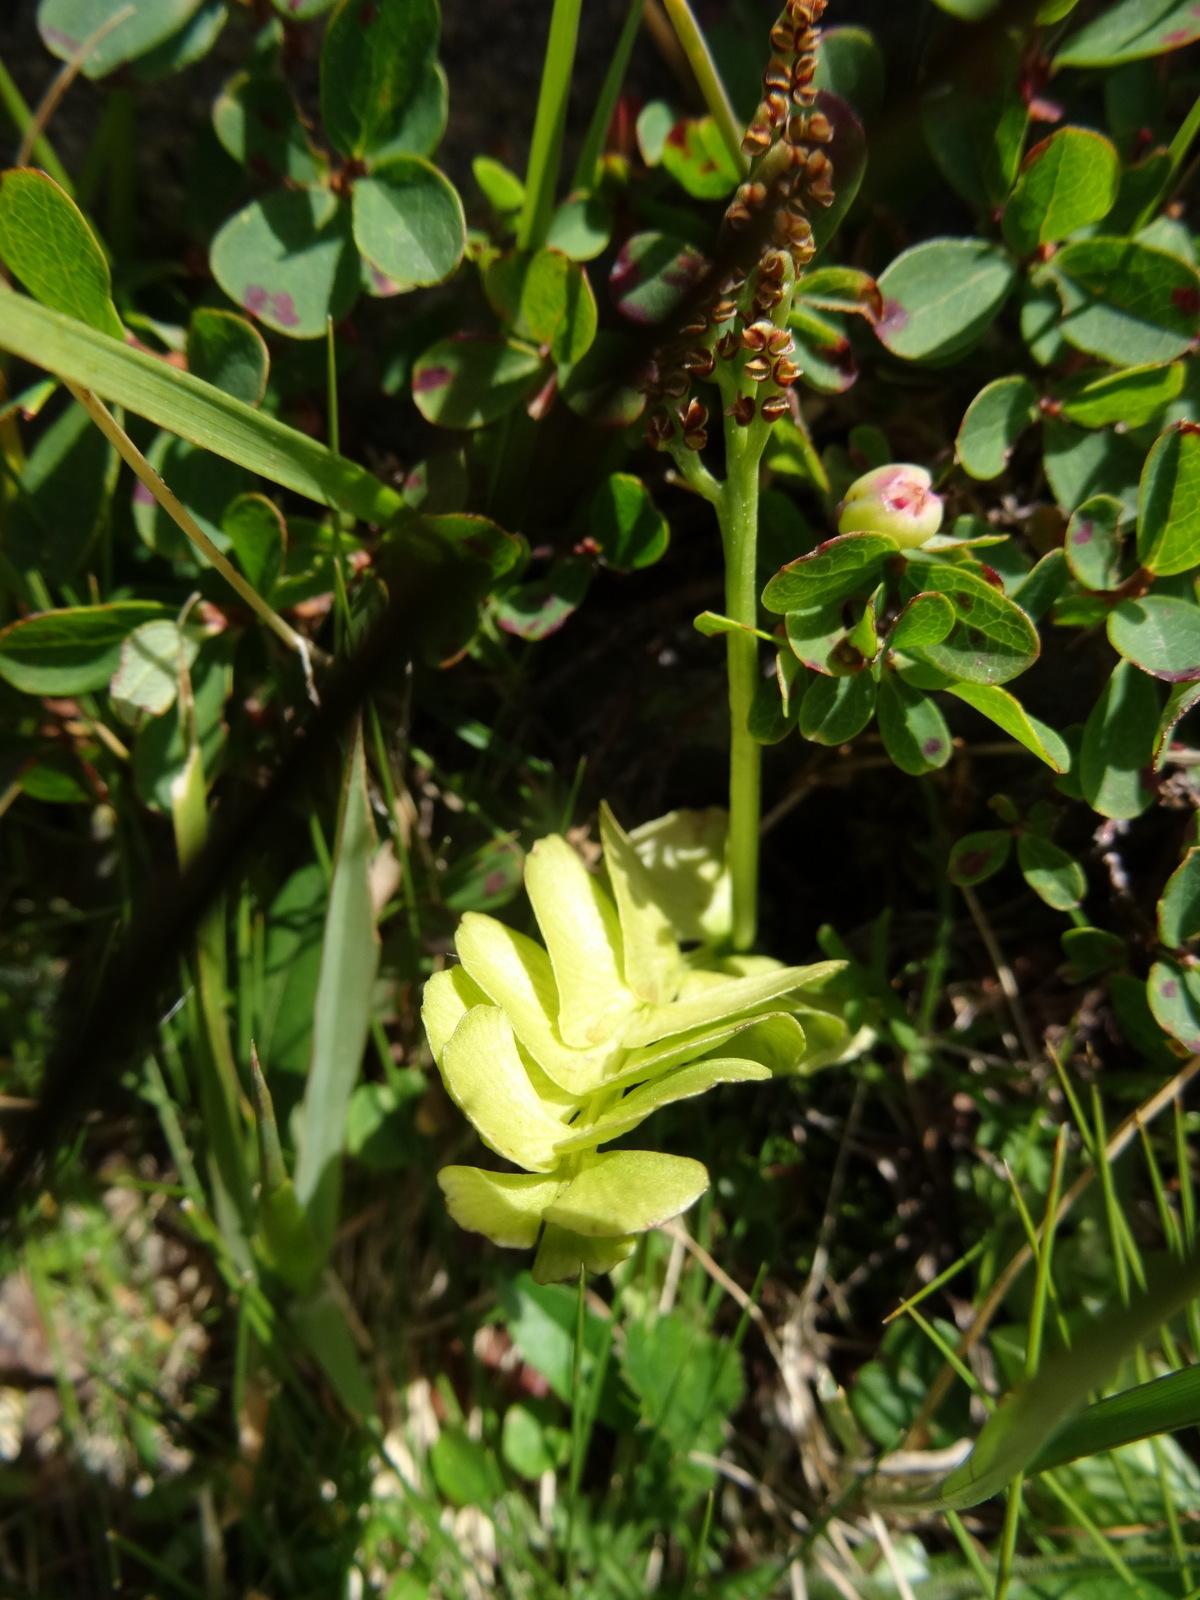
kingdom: Plantae
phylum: Tracheophyta
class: Polypodiopsida
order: Ophioglossales
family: Ophioglossaceae
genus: Botrychium
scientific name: Botrychium lunaria
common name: Moonwort
